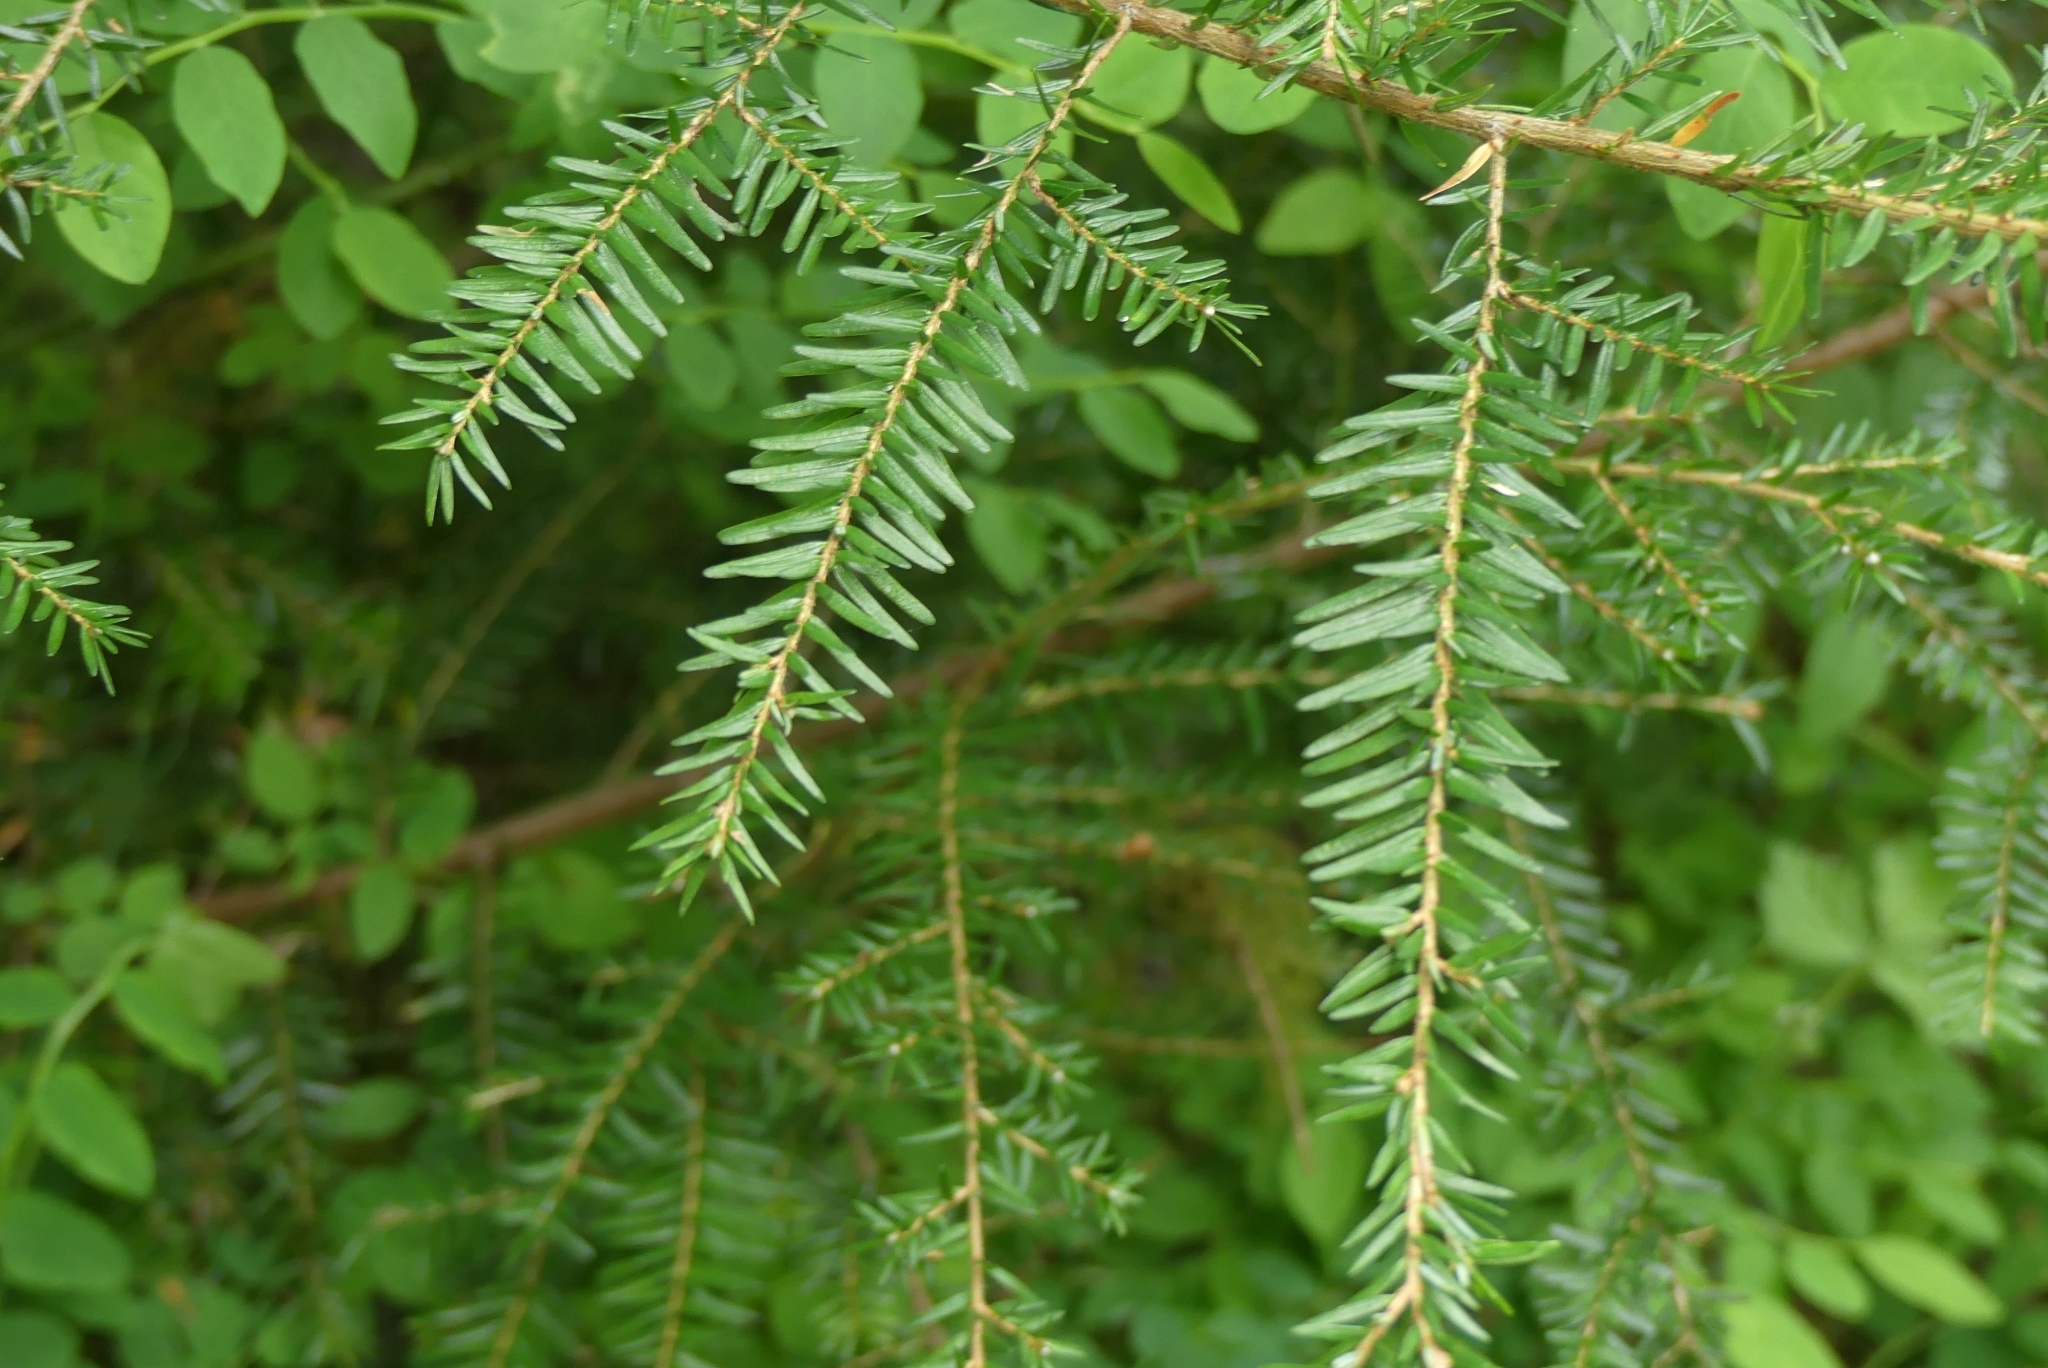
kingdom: Plantae
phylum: Tracheophyta
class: Pinopsida
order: Pinales
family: Pinaceae
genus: Tsuga
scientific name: Tsuga heterophylla
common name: Western hemlock
